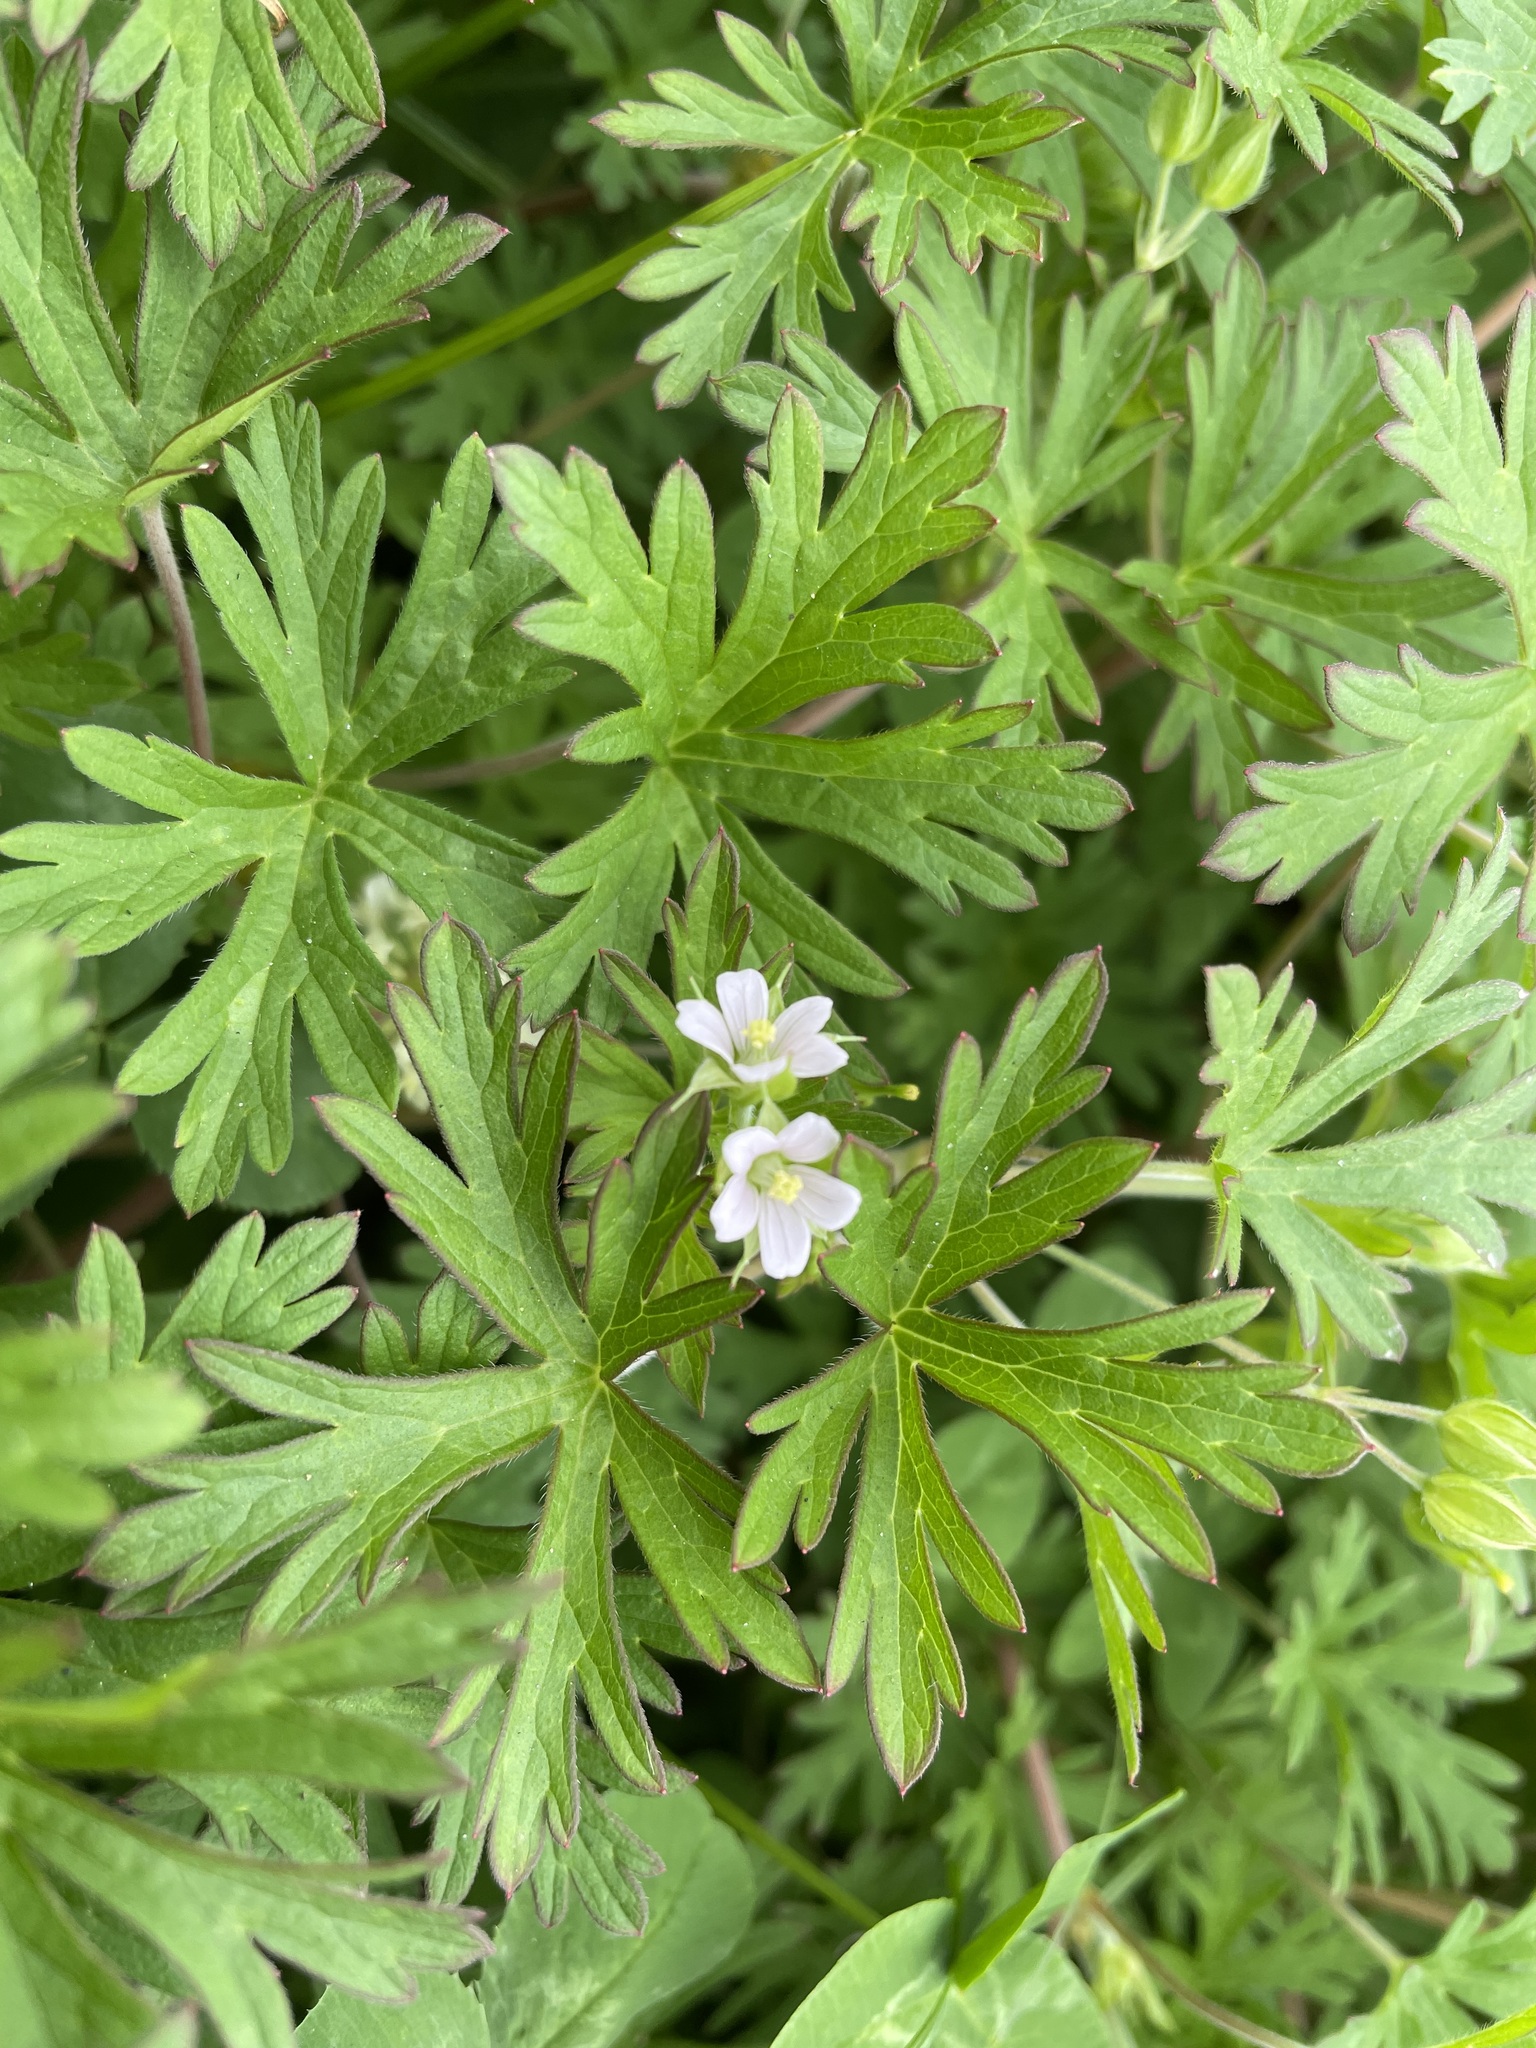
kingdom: Plantae
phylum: Tracheophyta
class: Magnoliopsida
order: Geraniales
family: Geraniaceae
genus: Geranium
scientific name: Geranium carolinianum
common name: Carolina crane's-bill
